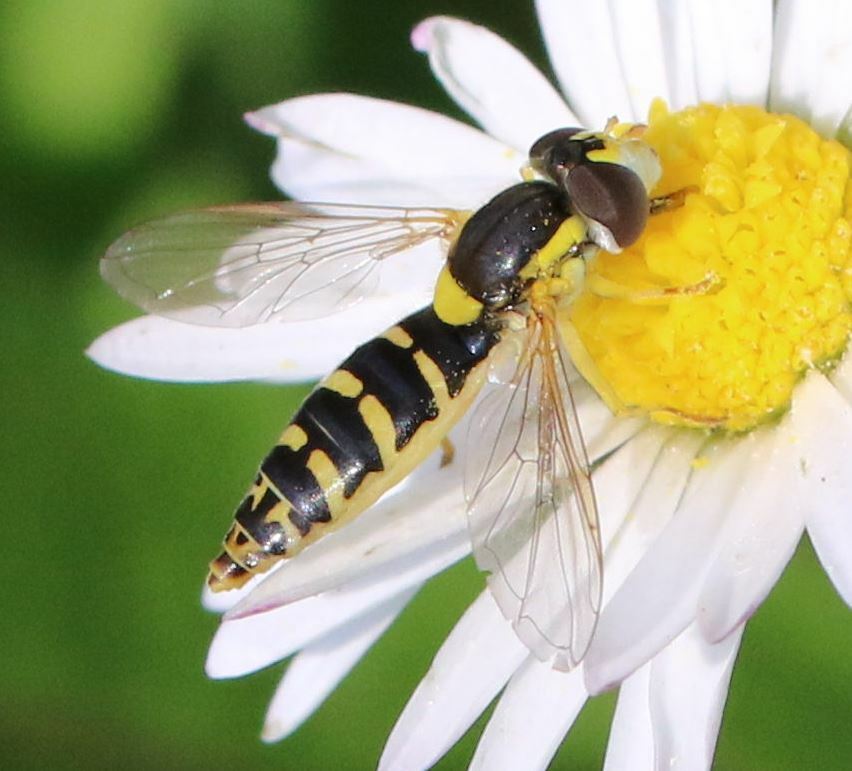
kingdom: Animalia
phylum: Arthropoda
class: Insecta
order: Diptera
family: Syrphidae
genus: Sphaerophoria
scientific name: Sphaerophoria
